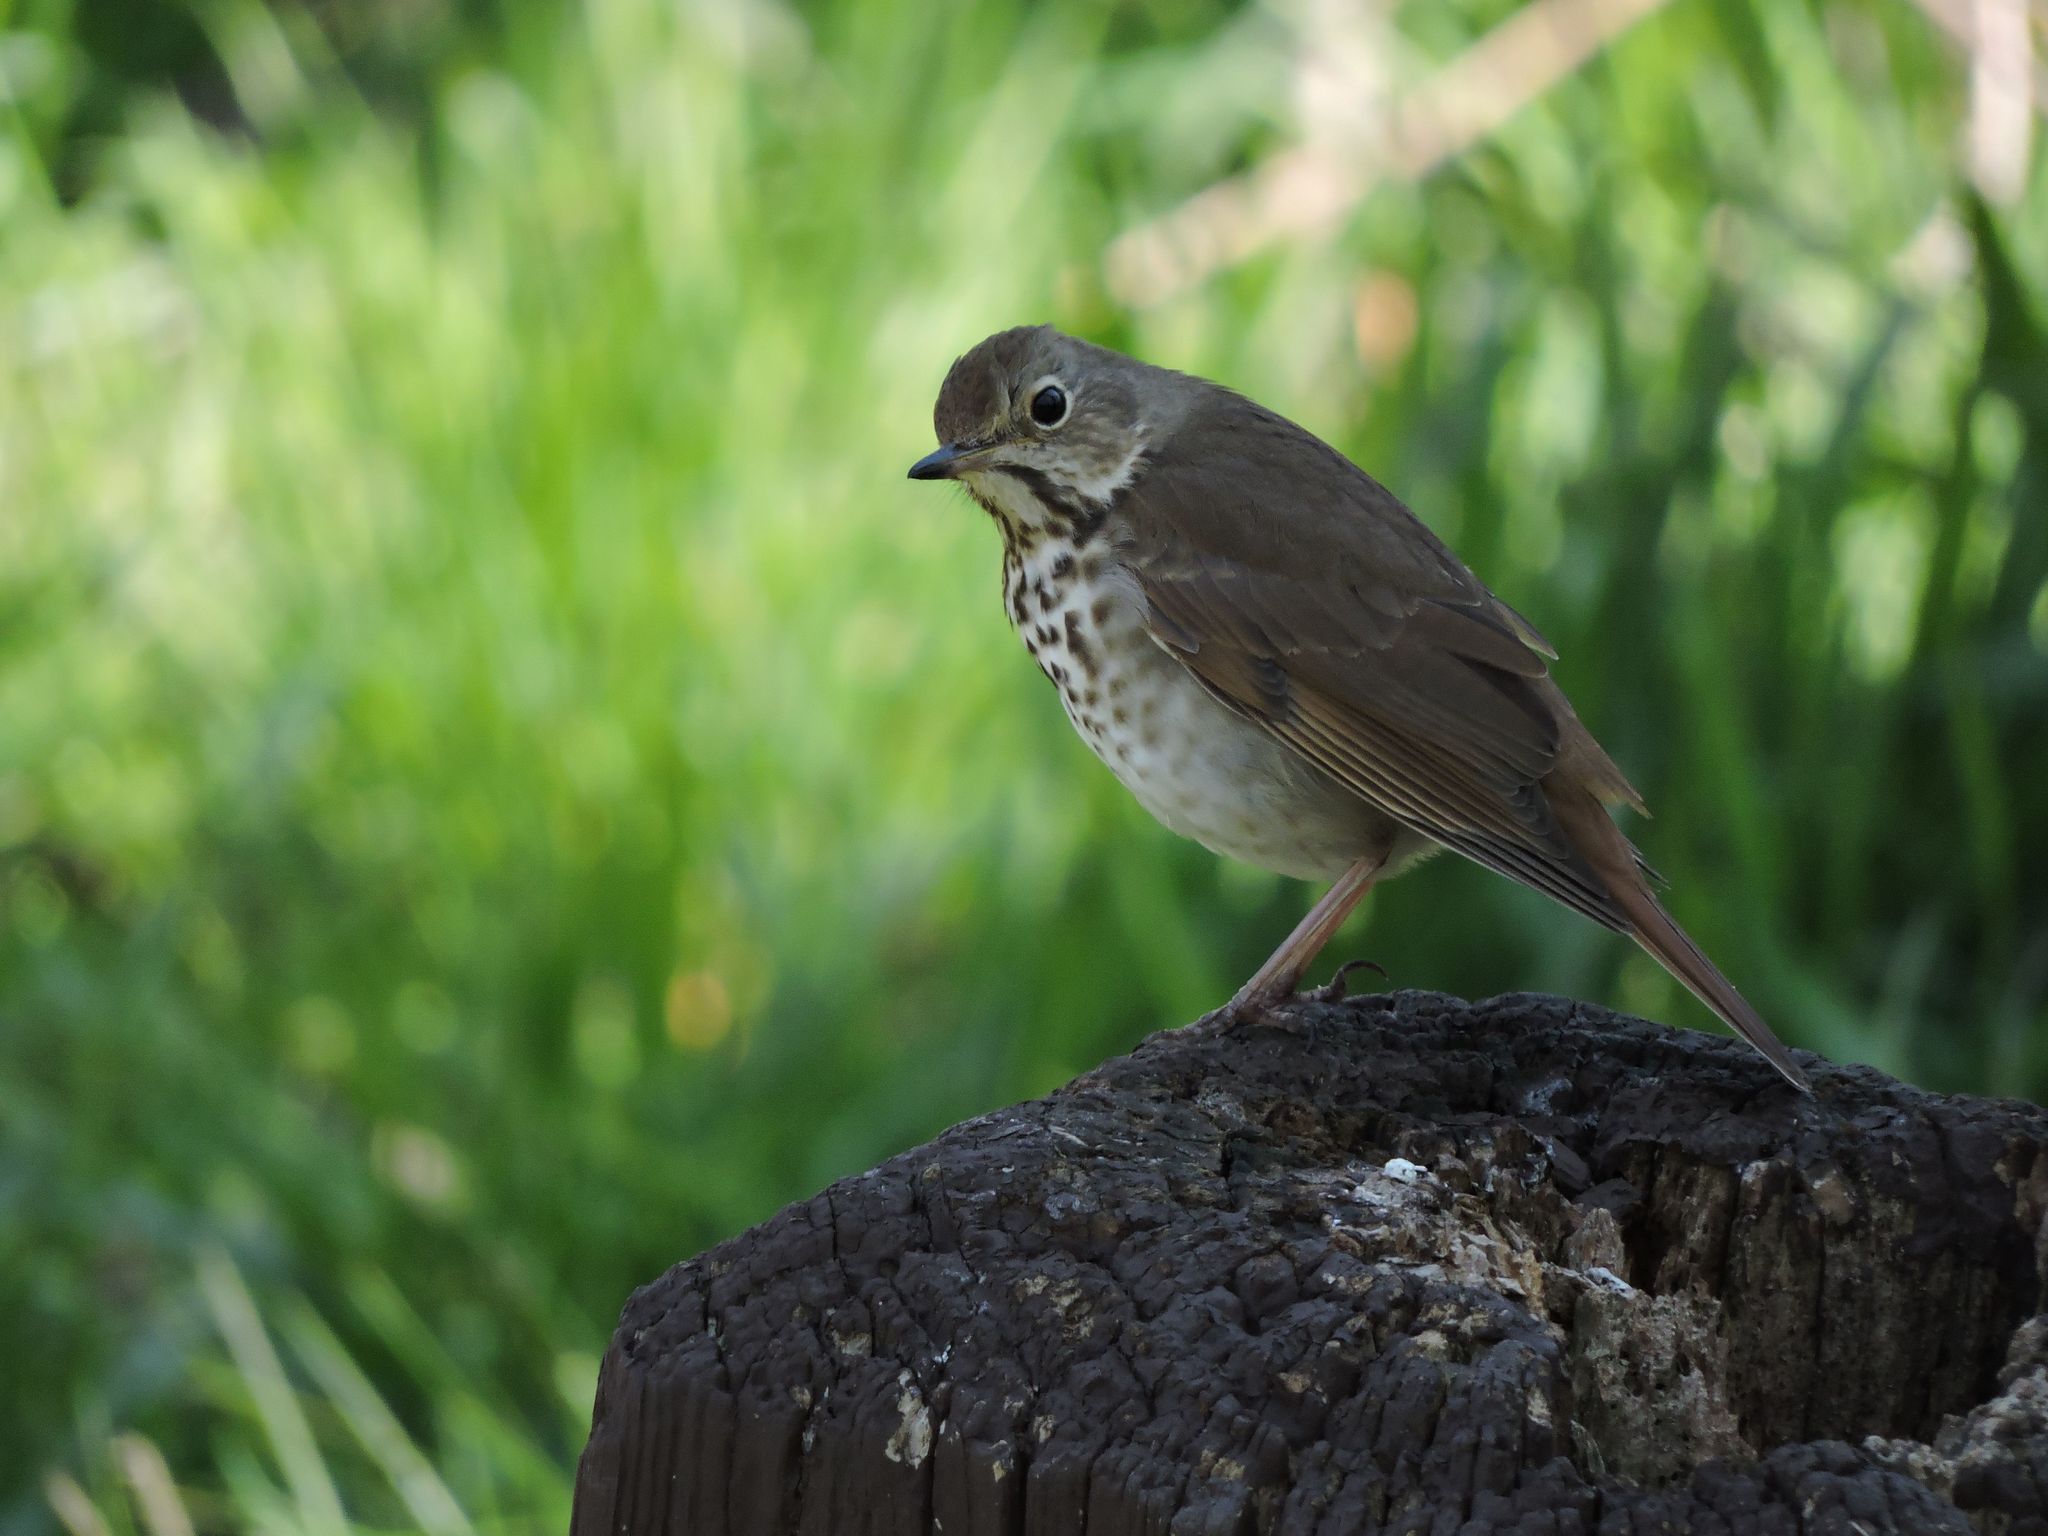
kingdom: Animalia
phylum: Chordata
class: Aves
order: Passeriformes
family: Turdidae
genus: Catharus
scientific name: Catharus guttatus
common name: Hermit thrush
